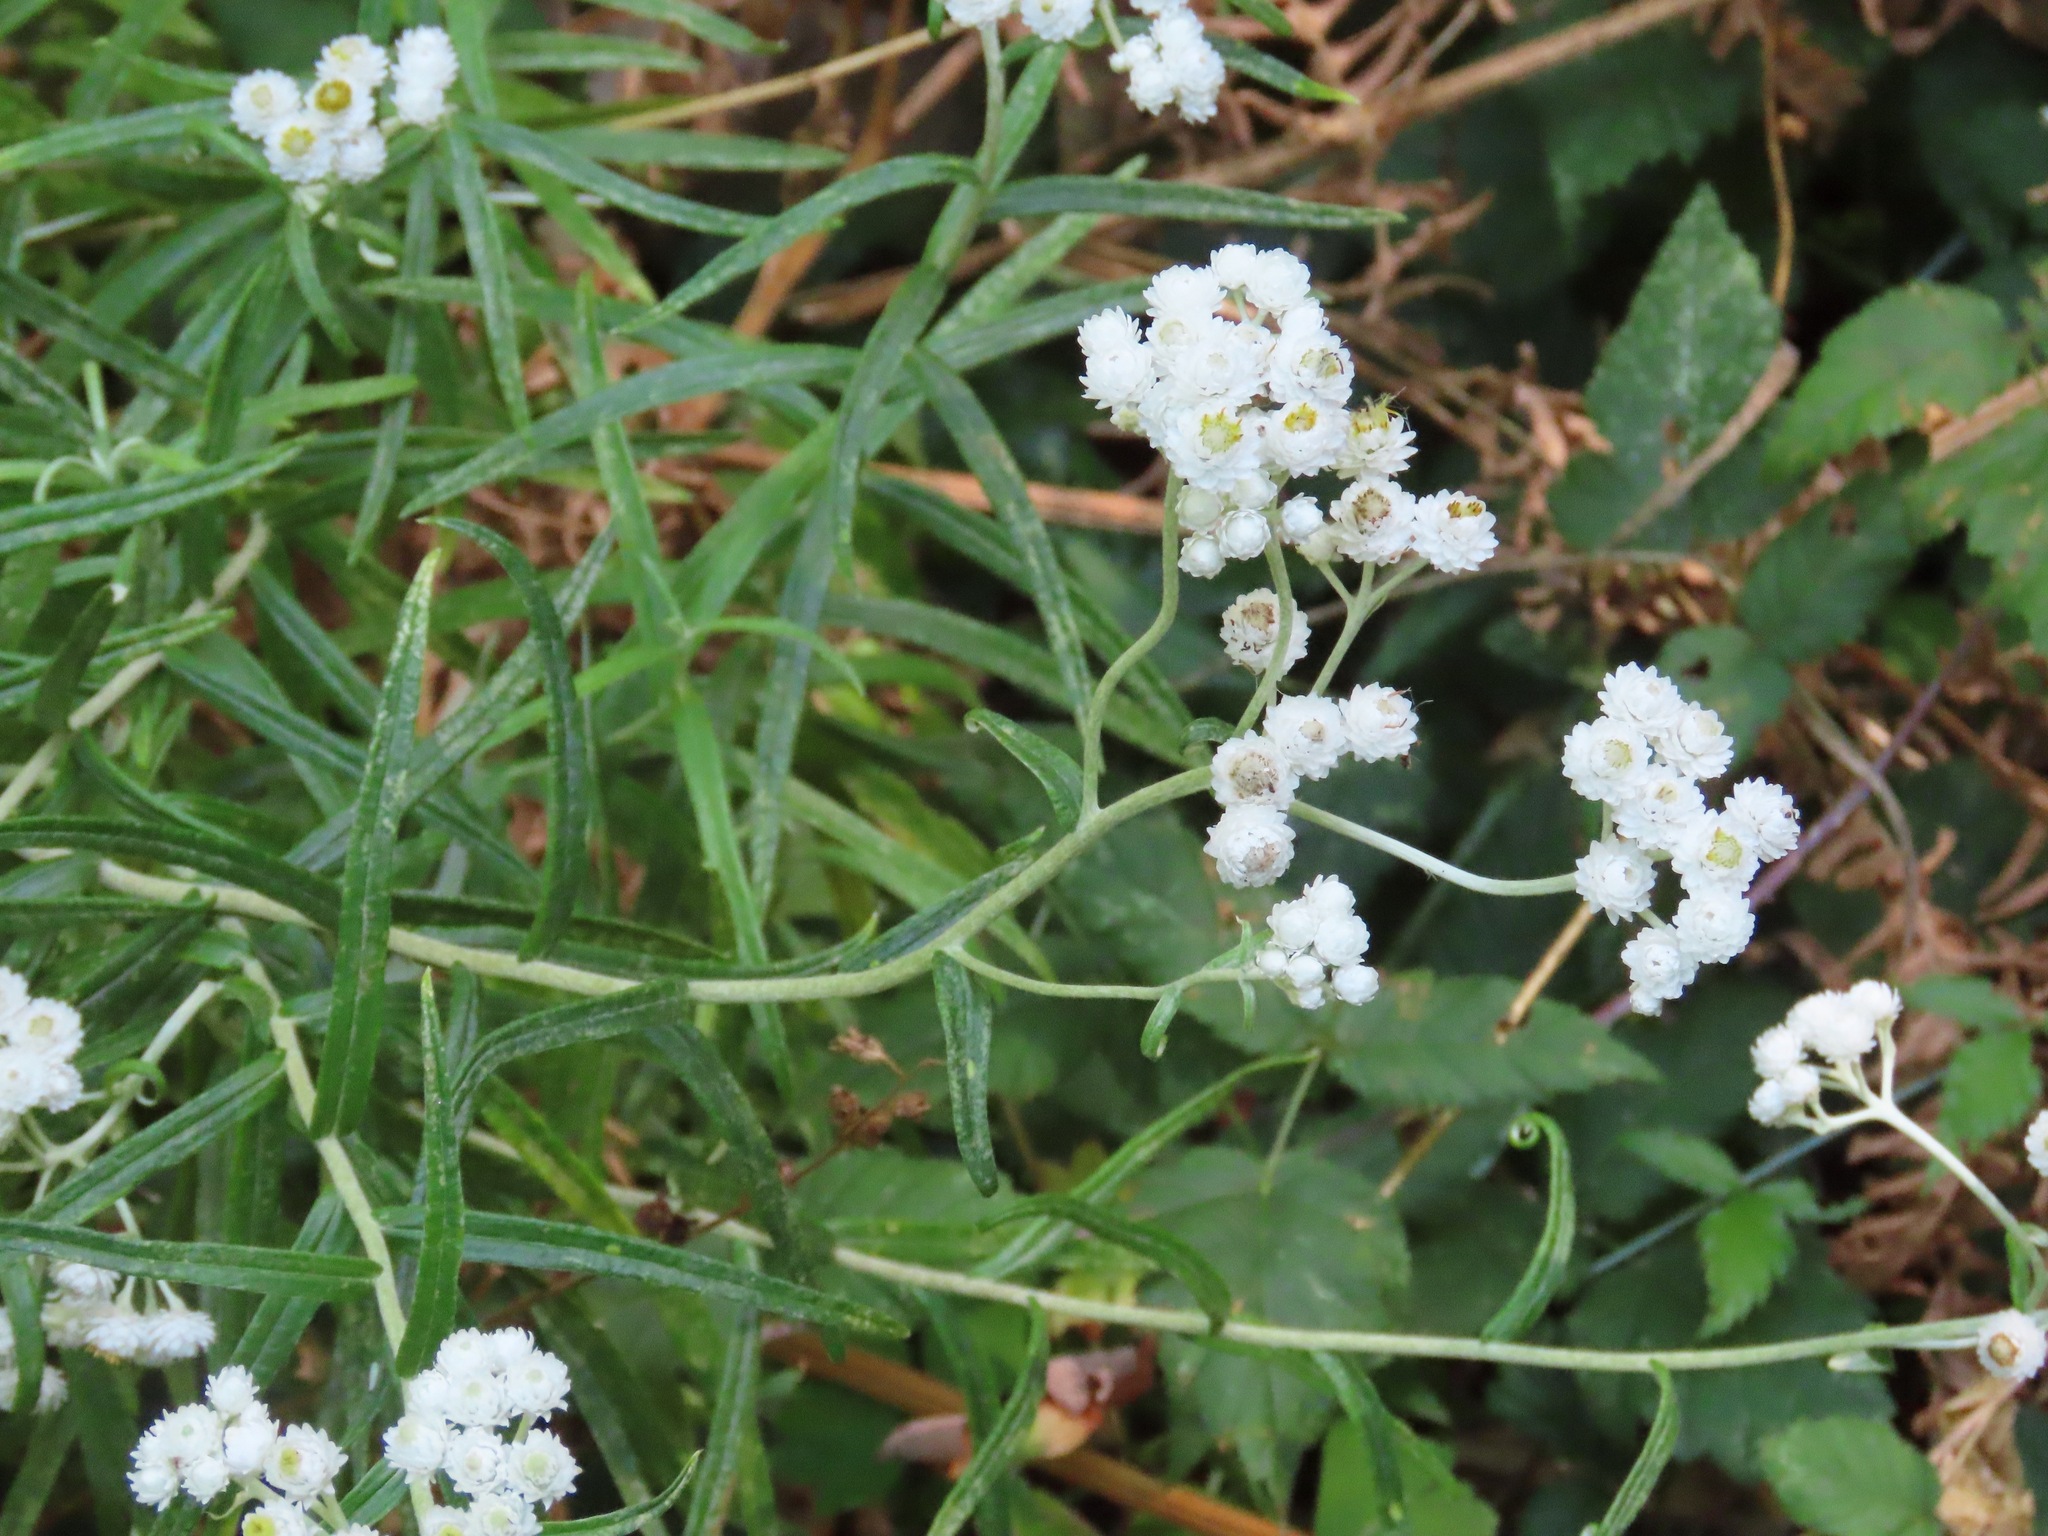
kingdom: Plantae
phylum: Tracheophyta
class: Magnoliopsida
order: Asterales
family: Asteraceae
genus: Anaphalis
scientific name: Anaphalis margaritacea
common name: Pearly everlasting
